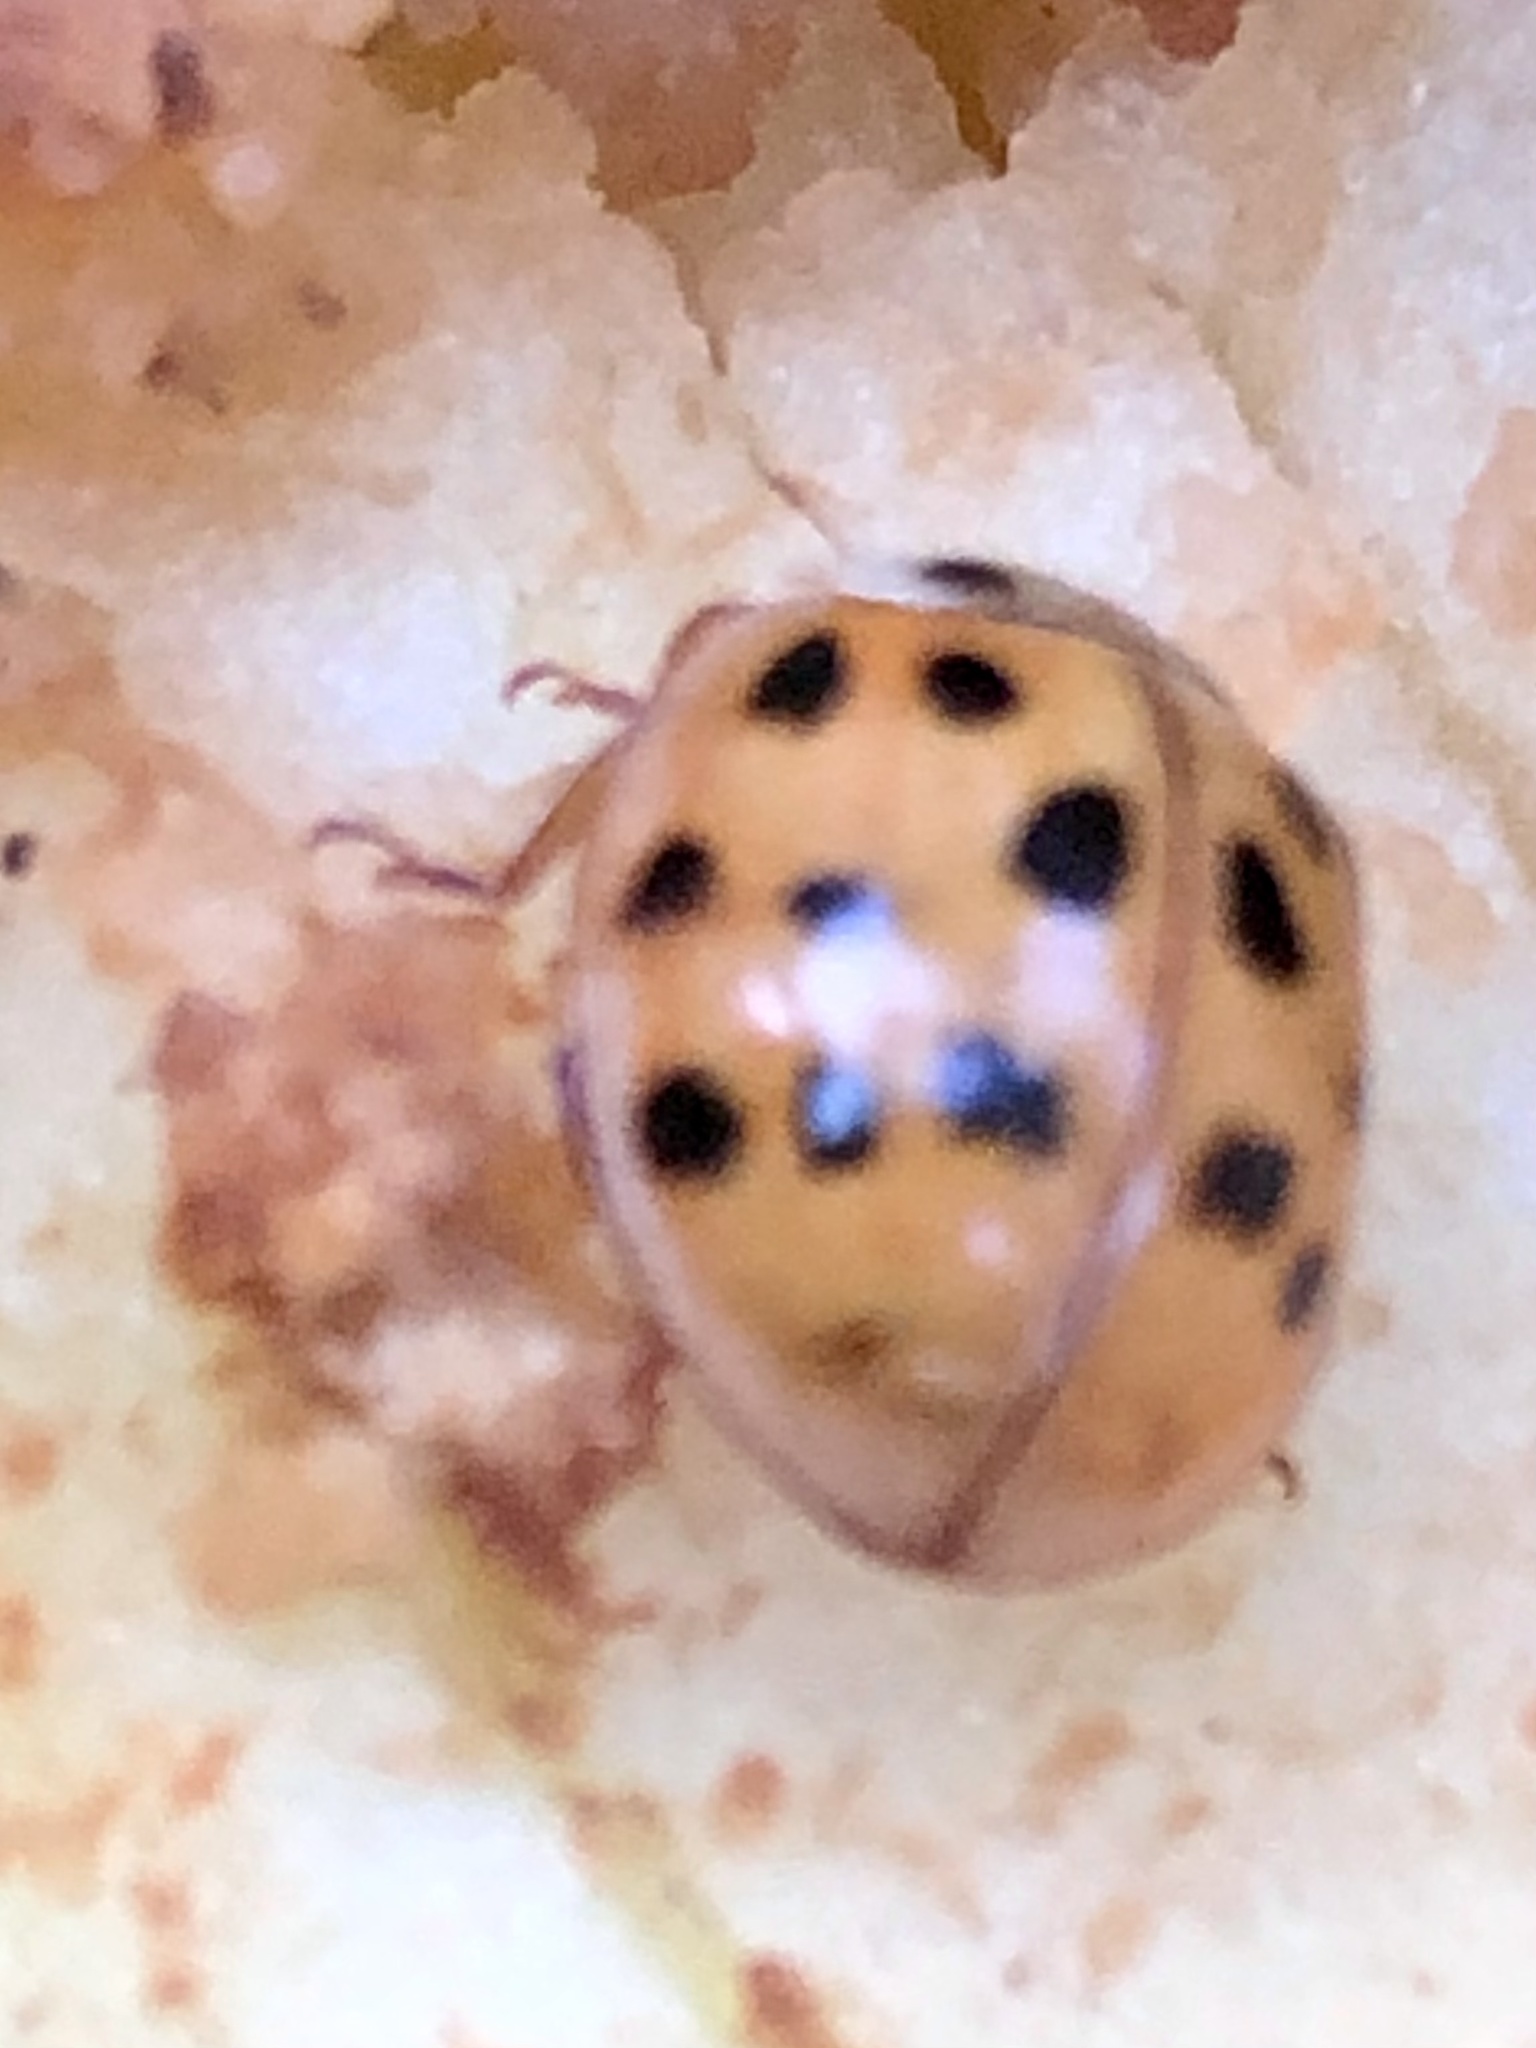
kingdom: Animalia
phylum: Arthropoda
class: Insecta
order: Coleoptera
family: Coccinellidae
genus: Harmonia
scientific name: Harmonia axyridis
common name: Harlequin ladybird
